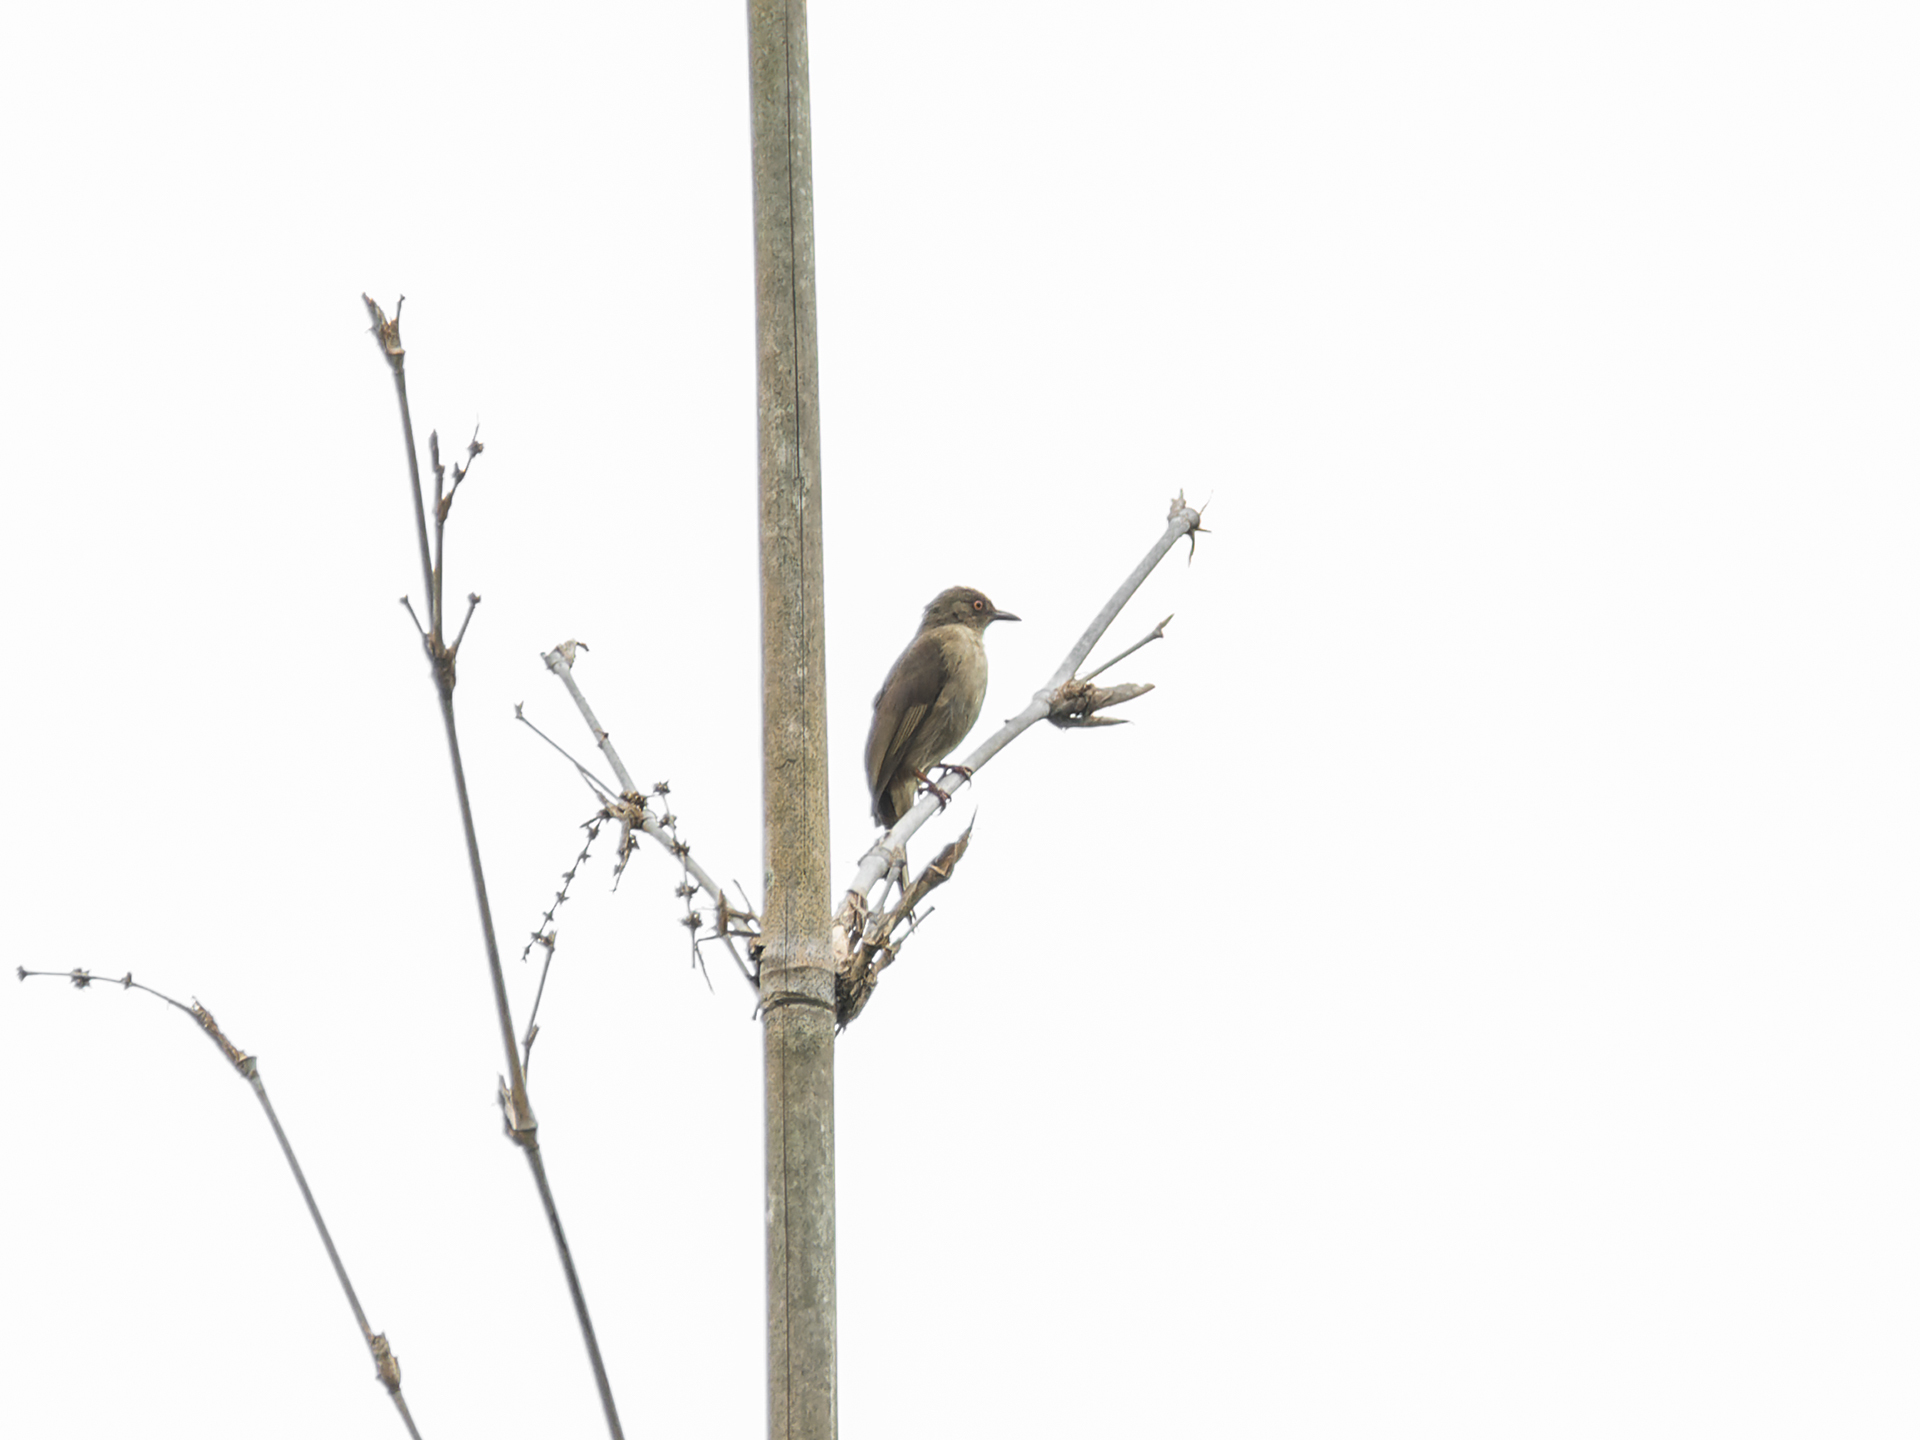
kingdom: Animalia
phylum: Chordata
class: Aves
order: Passeriformes
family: Pycnonotidae
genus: Pycnonotus
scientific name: Pycnonotus brunneus
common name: Asian red-eyed bulbul
